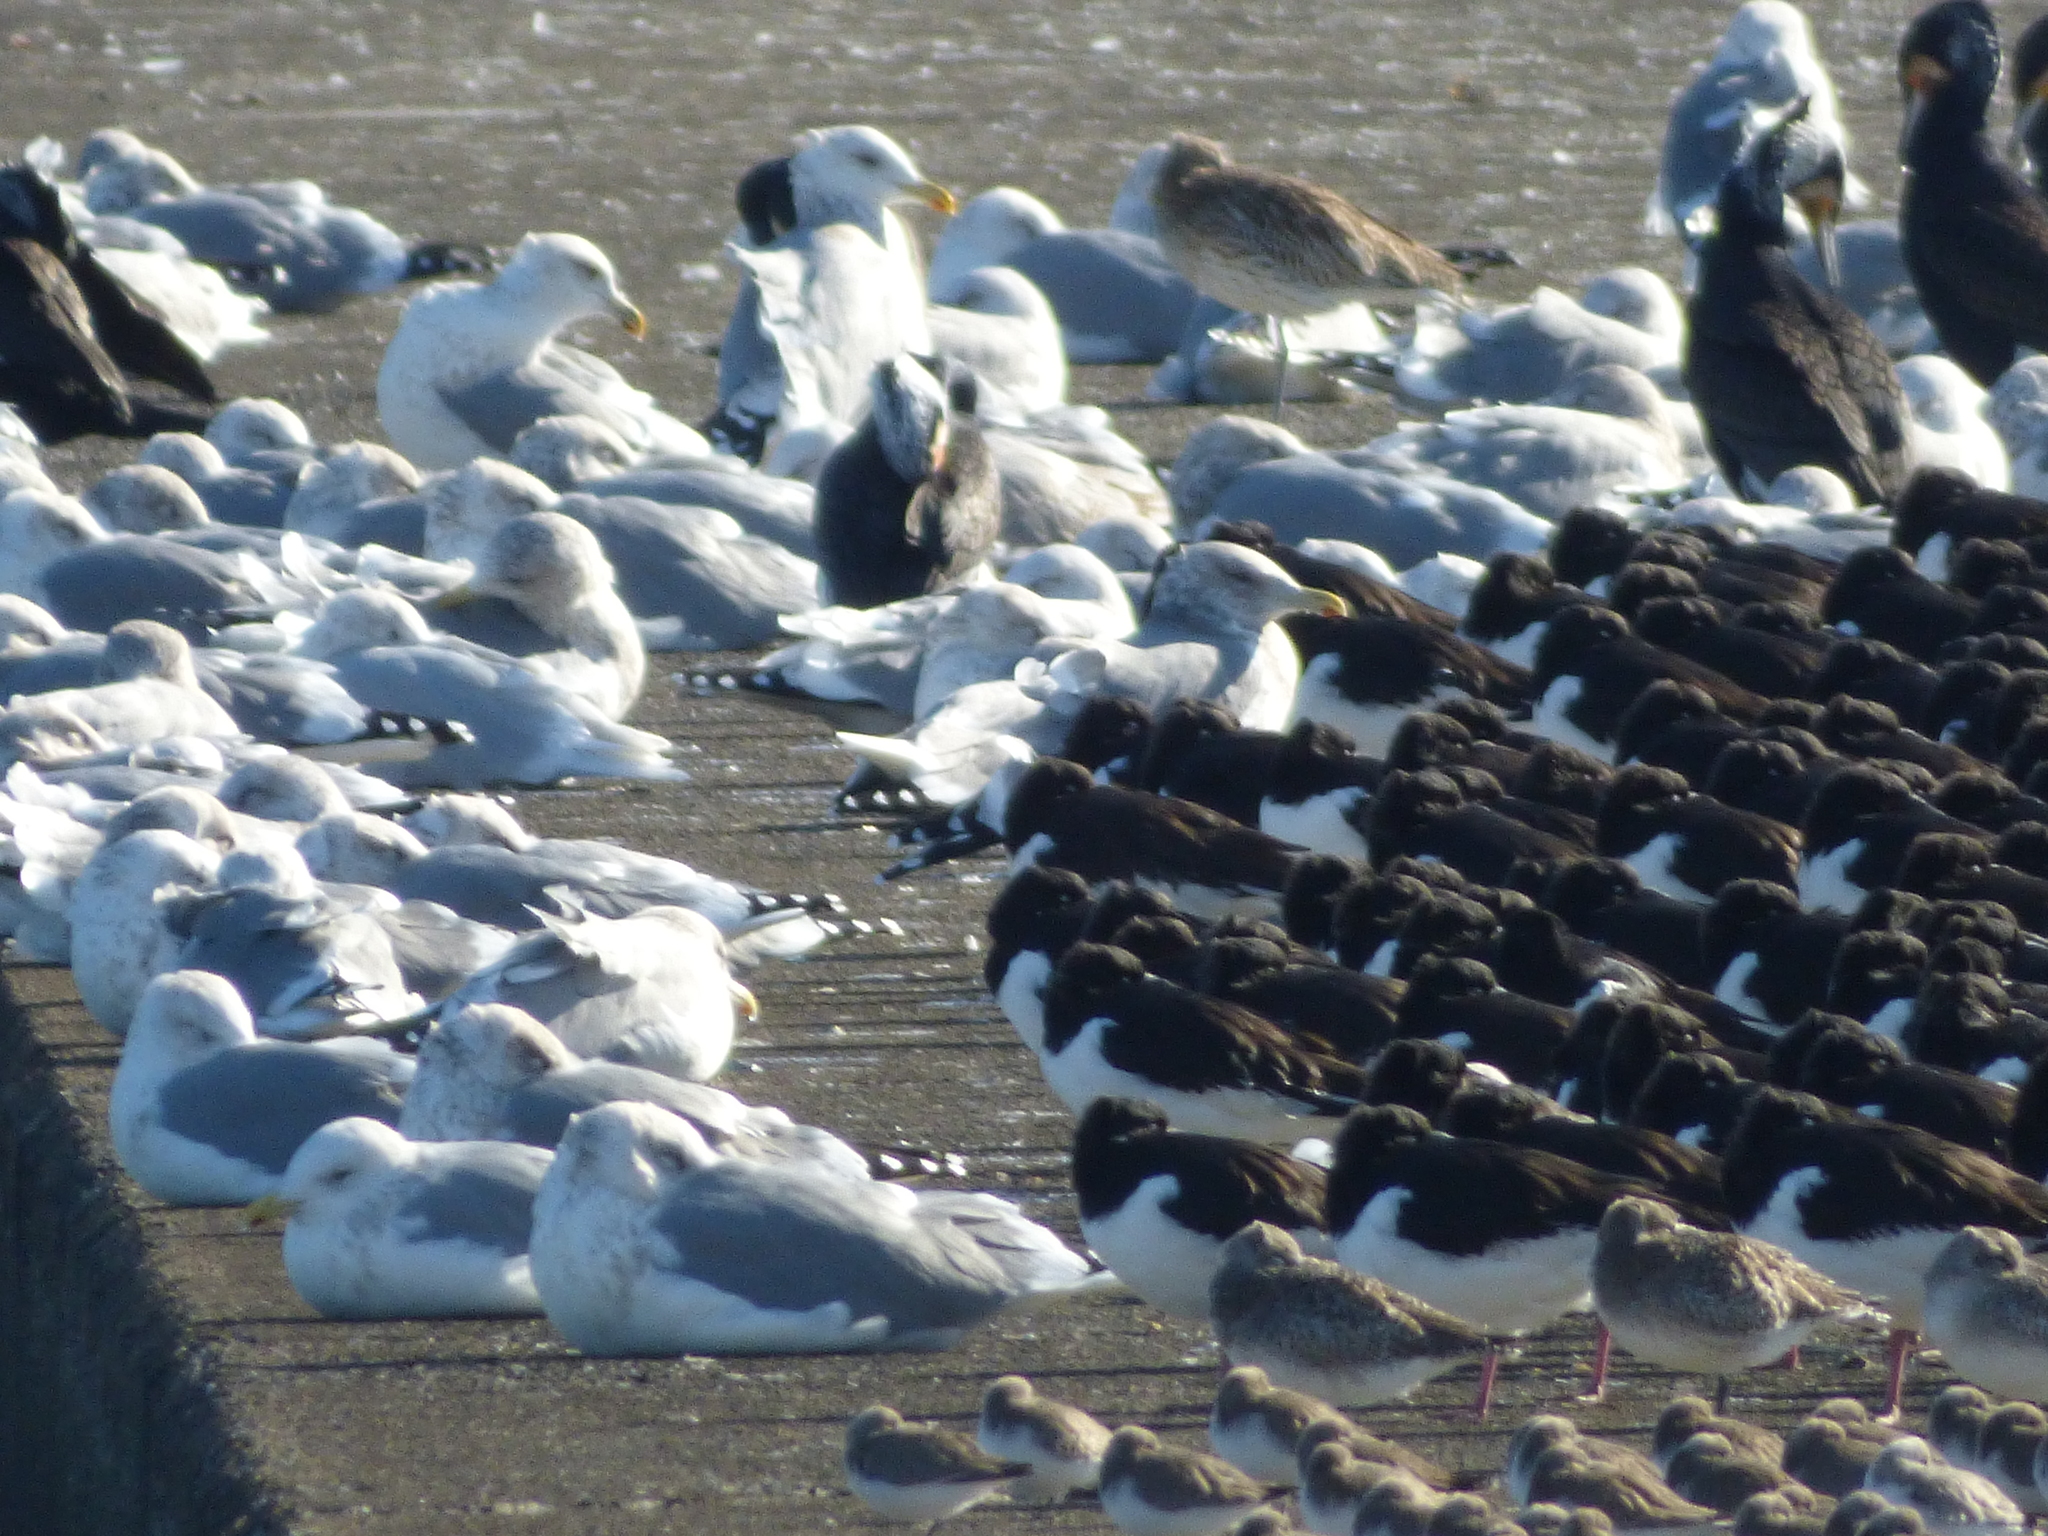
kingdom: Animalia
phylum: Chordata
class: Aves
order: Charadriiformes
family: Laridae
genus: Larus
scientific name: Larus hyperboreus
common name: Glaucous gull
